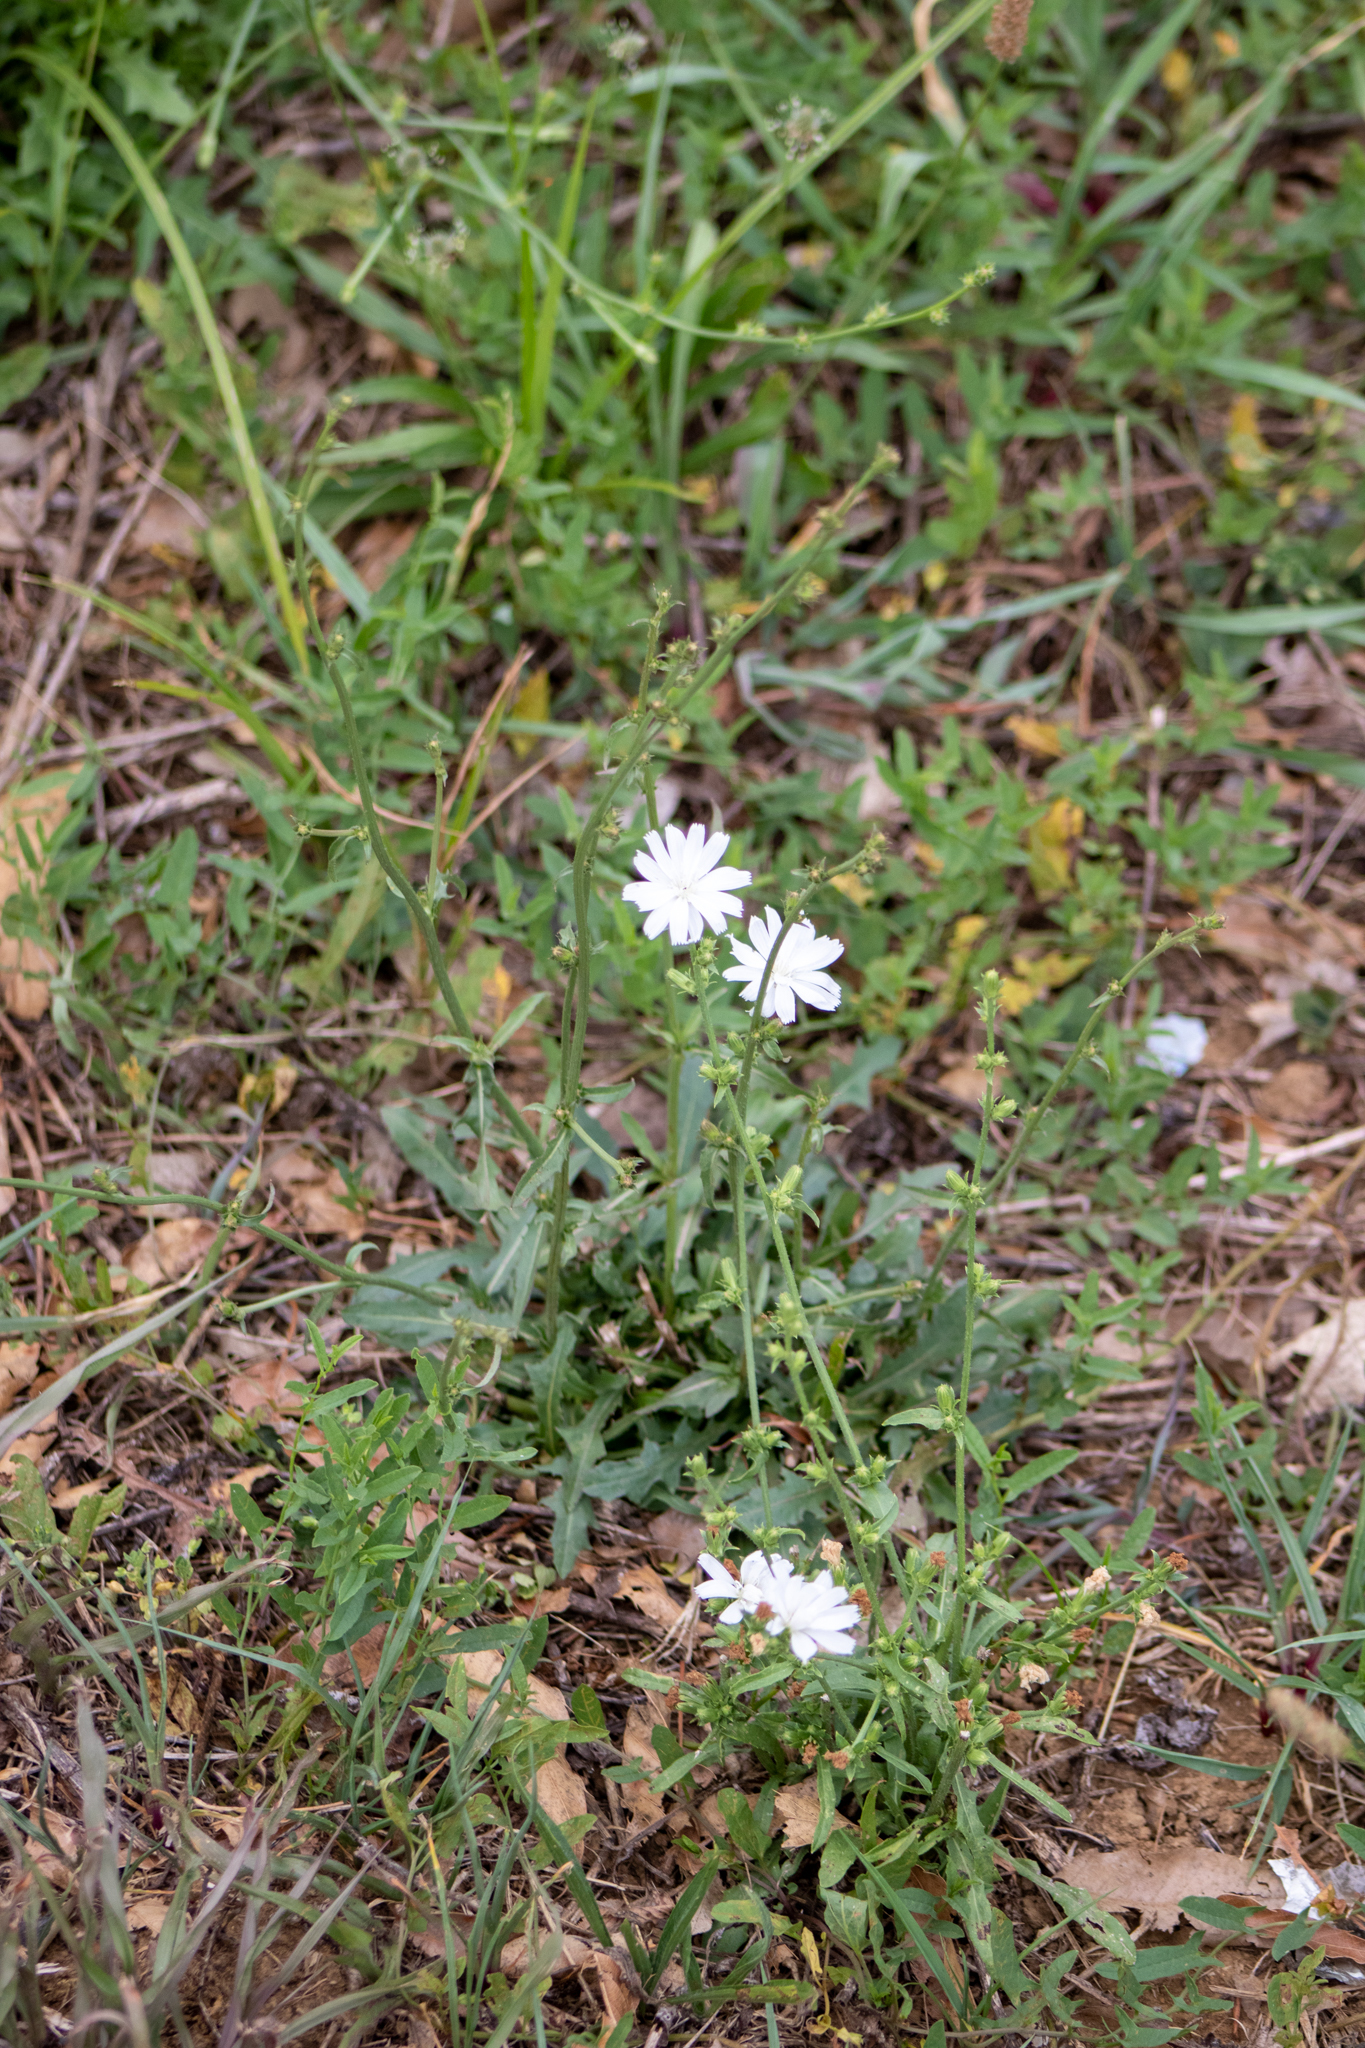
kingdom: Plantae
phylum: Tracheophyta
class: Magnoliopsida
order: Asterales
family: Asteraceae
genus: Cichorium
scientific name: Cichorium intybus
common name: Chicory
